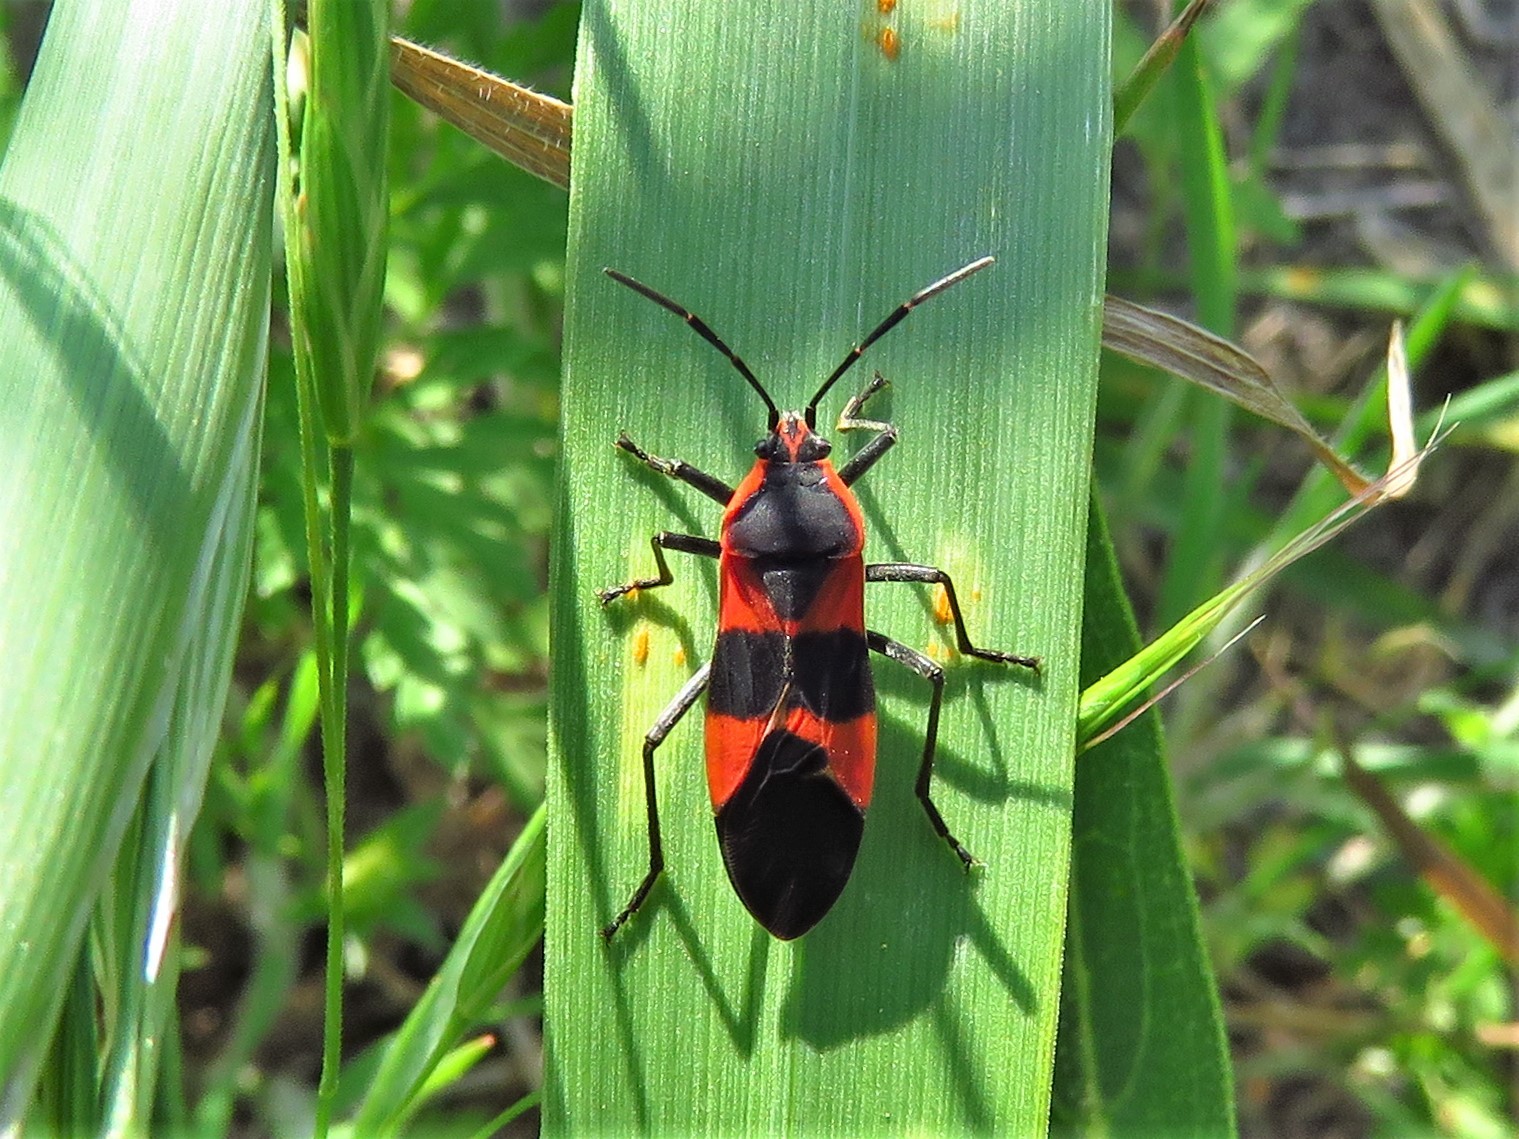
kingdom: Animalia
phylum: Arthropoda
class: Insecta
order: Hemiptera
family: Lygaeidae
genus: Oncopeltus
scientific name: Oncopeltus fasciatus
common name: Large milkweed bug
